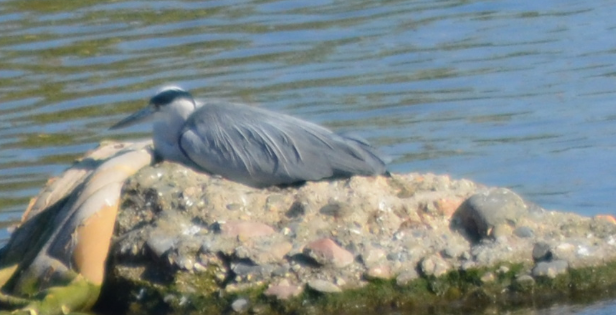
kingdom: Animalia
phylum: Chordata
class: Aves
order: Pelecaniformes
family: Ardeidae
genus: Ardea
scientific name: Ardea cinerea
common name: Grey heron
